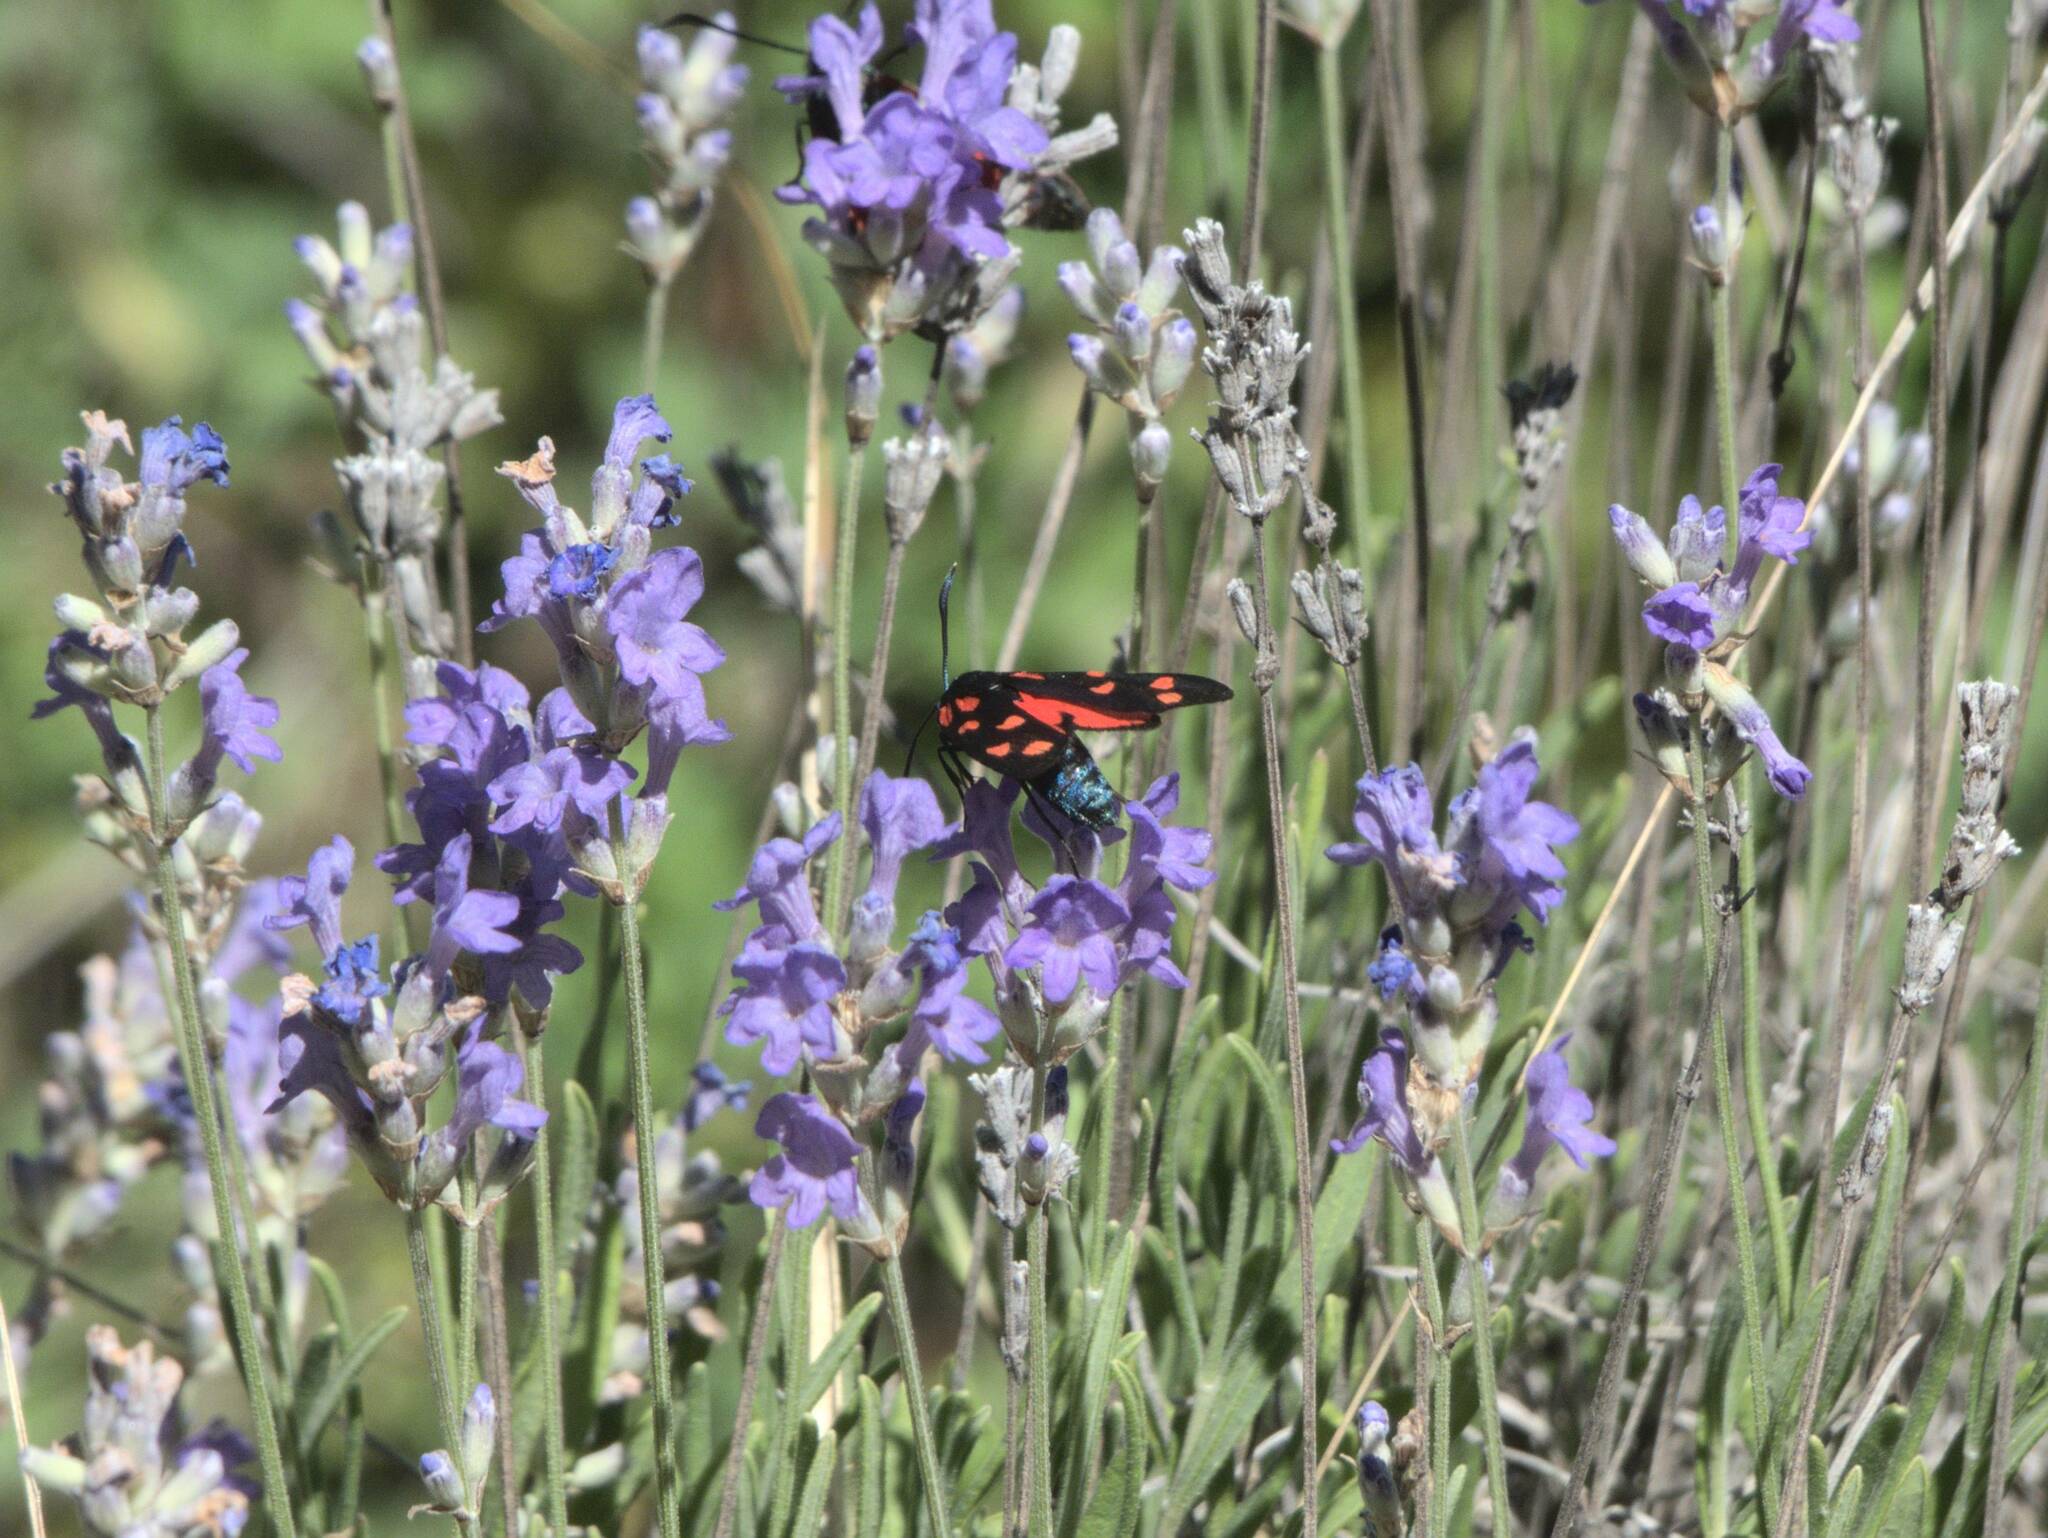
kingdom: Animalia
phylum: Arthropoda
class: Insecta
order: Lepidoptera
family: Zygaenidae
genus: Zygaena
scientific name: Zygaena transalpina
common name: Southern six spot burnet
